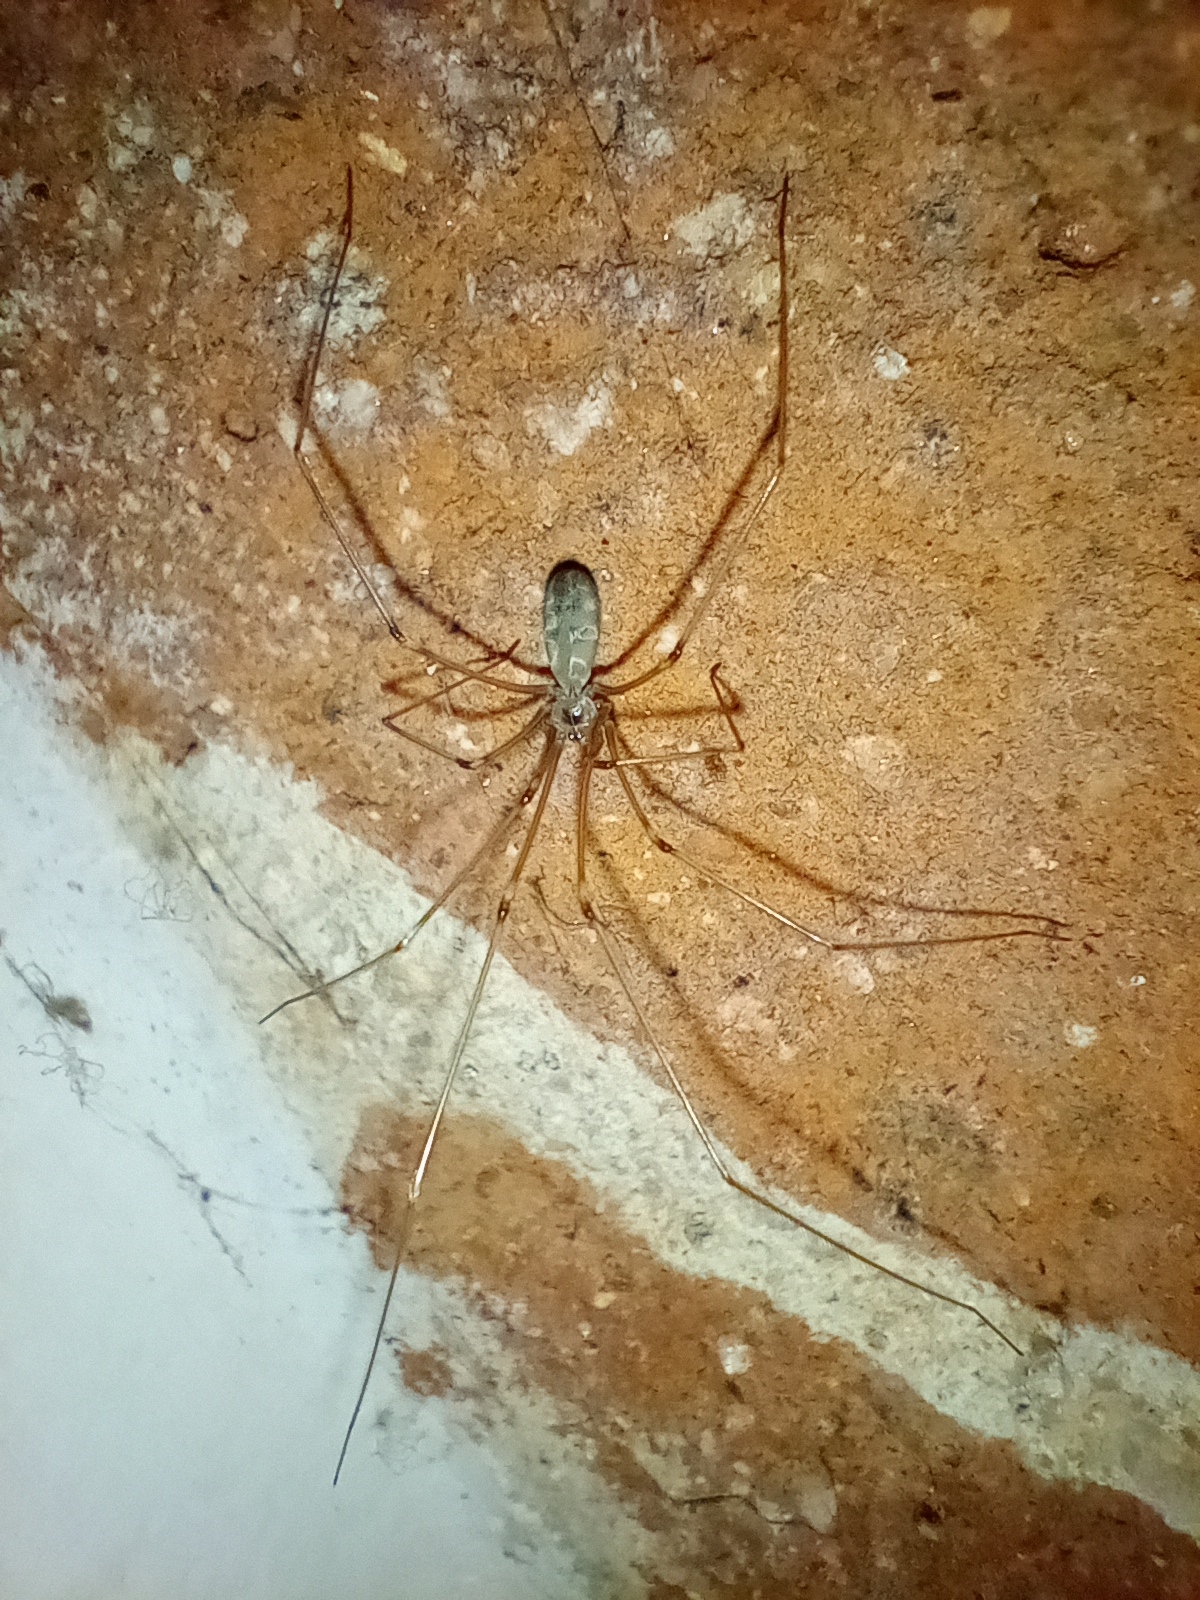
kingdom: Animalia
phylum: Arthropoda
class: Arachnida
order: Araneae
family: Pholcidae
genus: Pholcus
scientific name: Pholcus phalangioides
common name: Longbodied cellar spider
